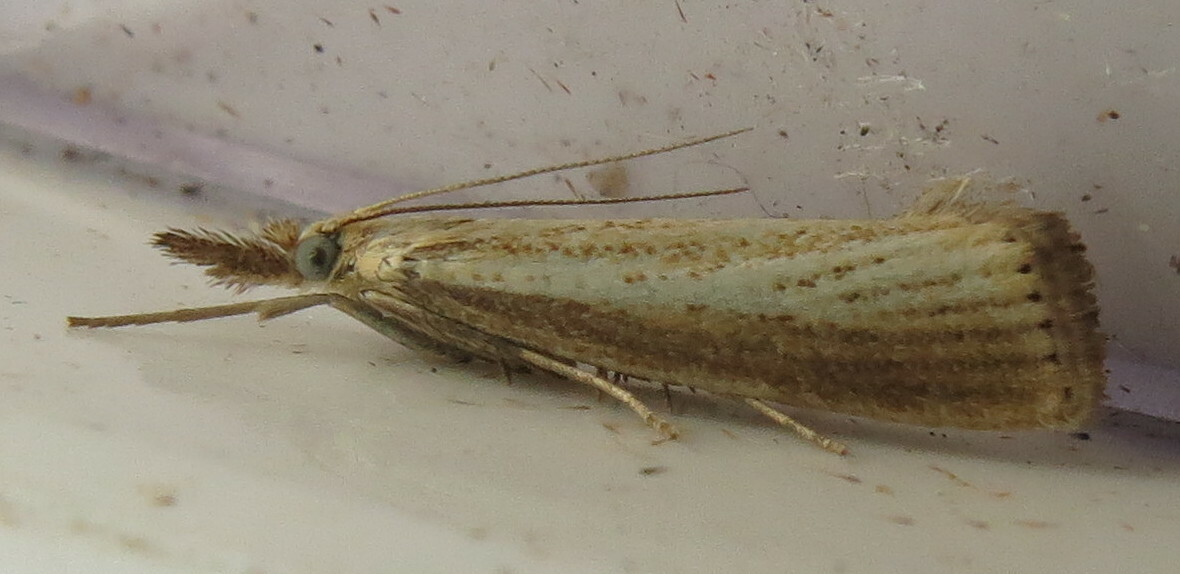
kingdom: Animalia
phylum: Arthropoda
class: Insecta
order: Lepidoptera
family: Crambidae
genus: Agriphila
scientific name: Agriphila straminella
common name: Straw grass-veneer
